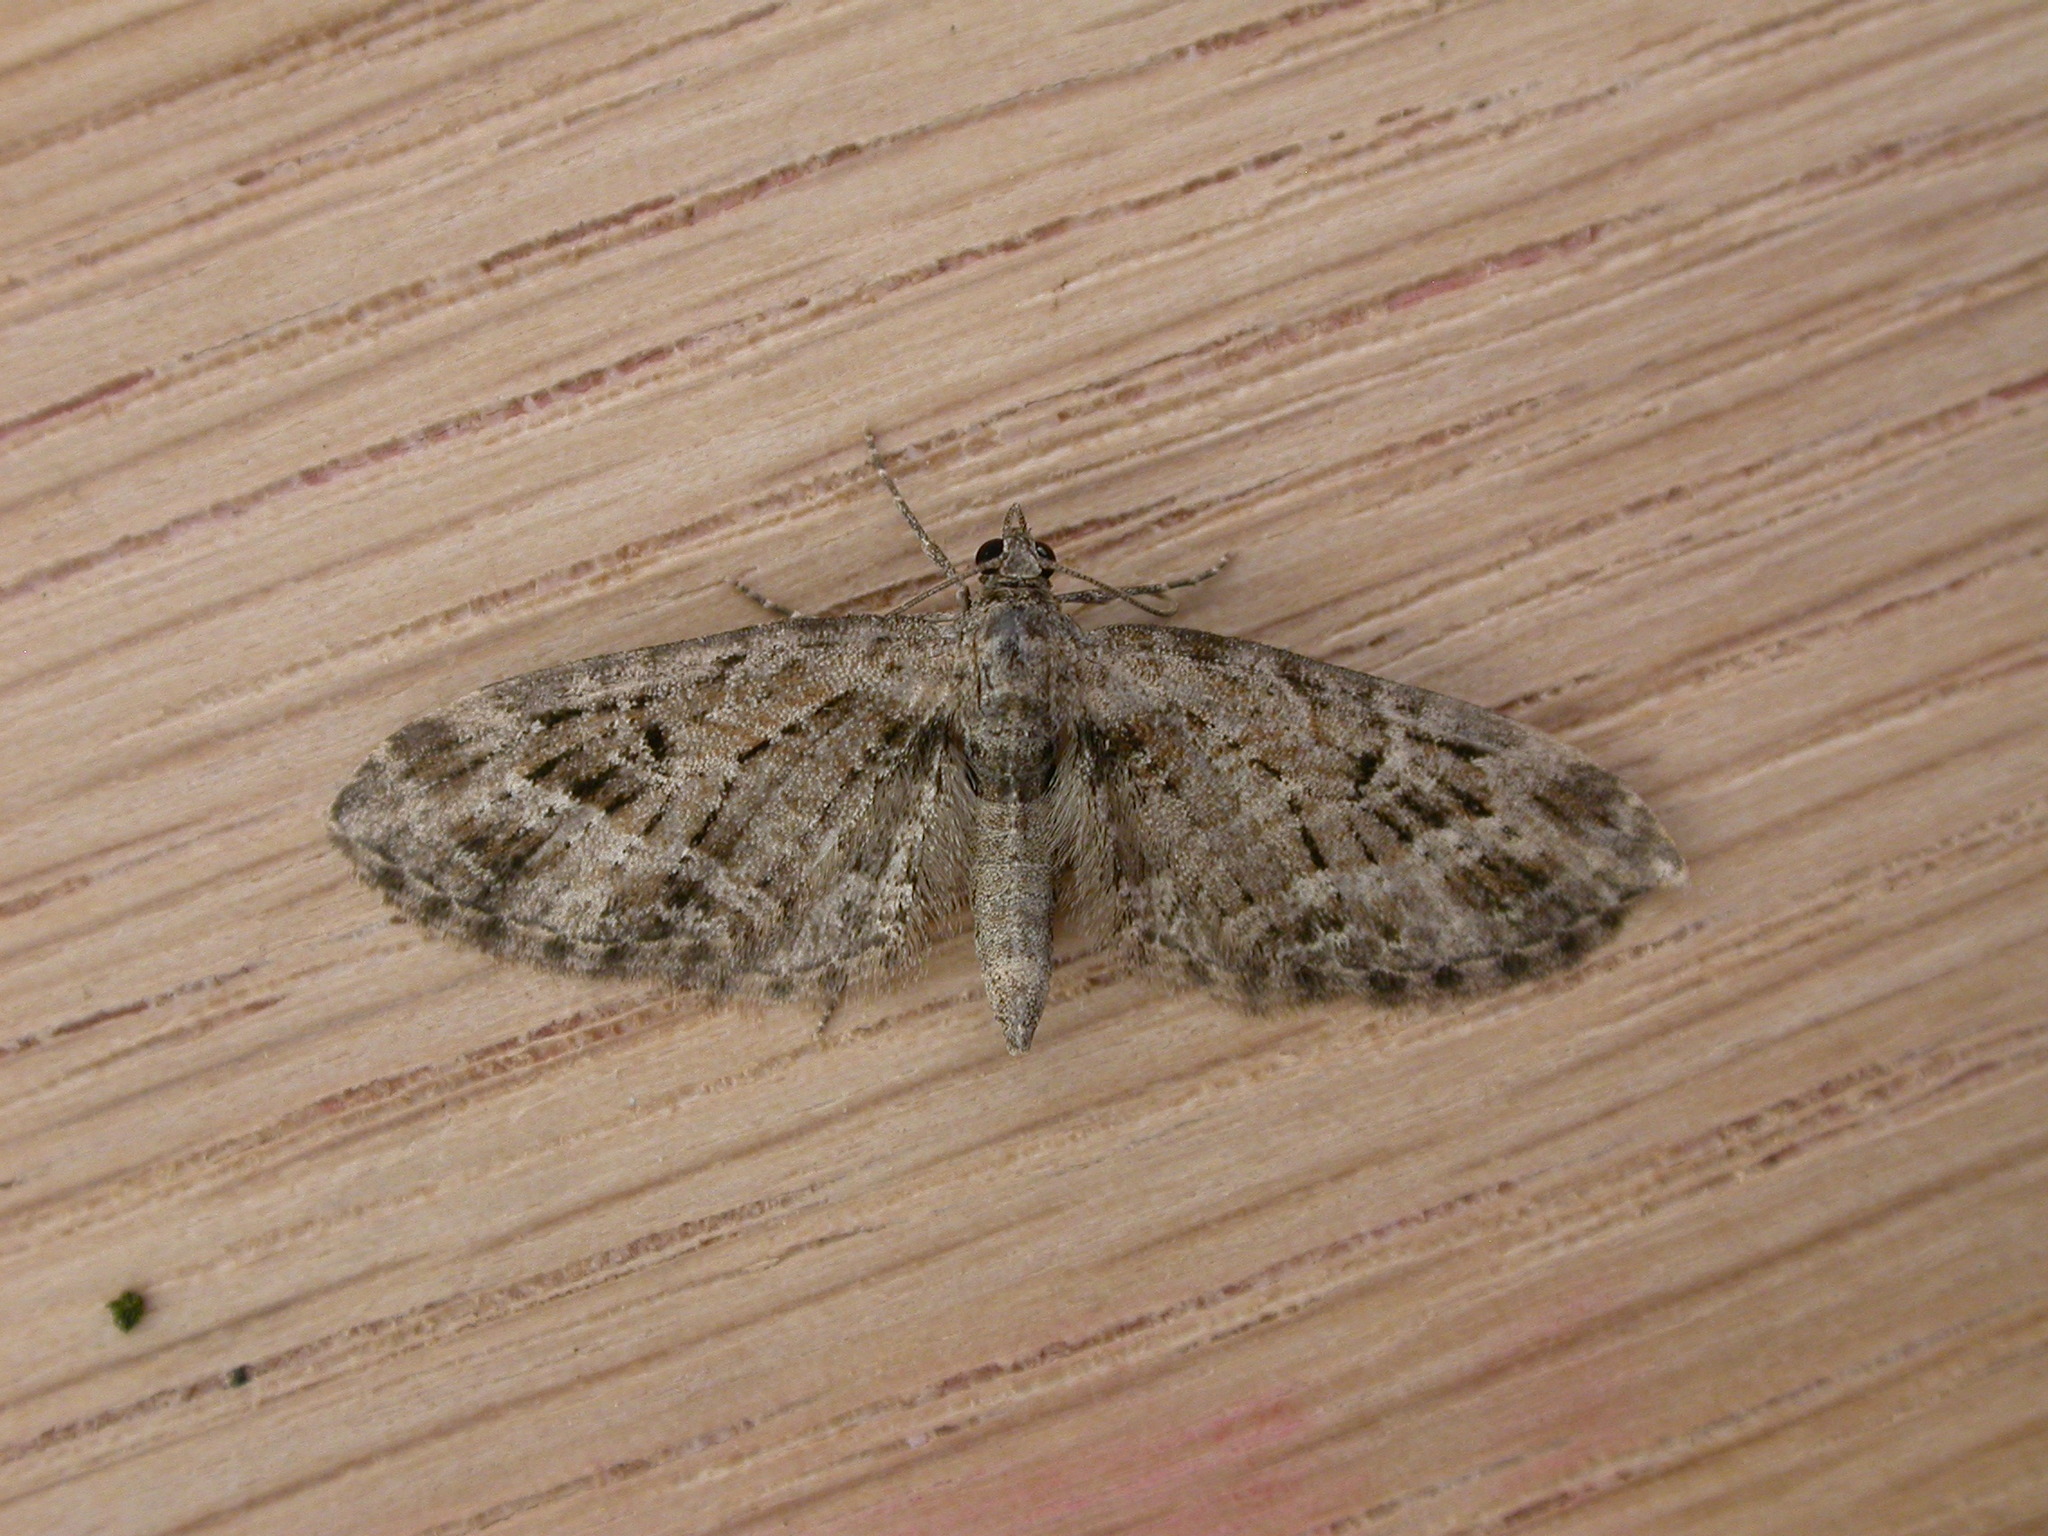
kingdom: Animalia
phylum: Arthropoda
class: Insecta
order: Lepidoptera
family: Geometridae
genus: Eupithecia
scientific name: Eupithecia exiguata
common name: Mottled pug
